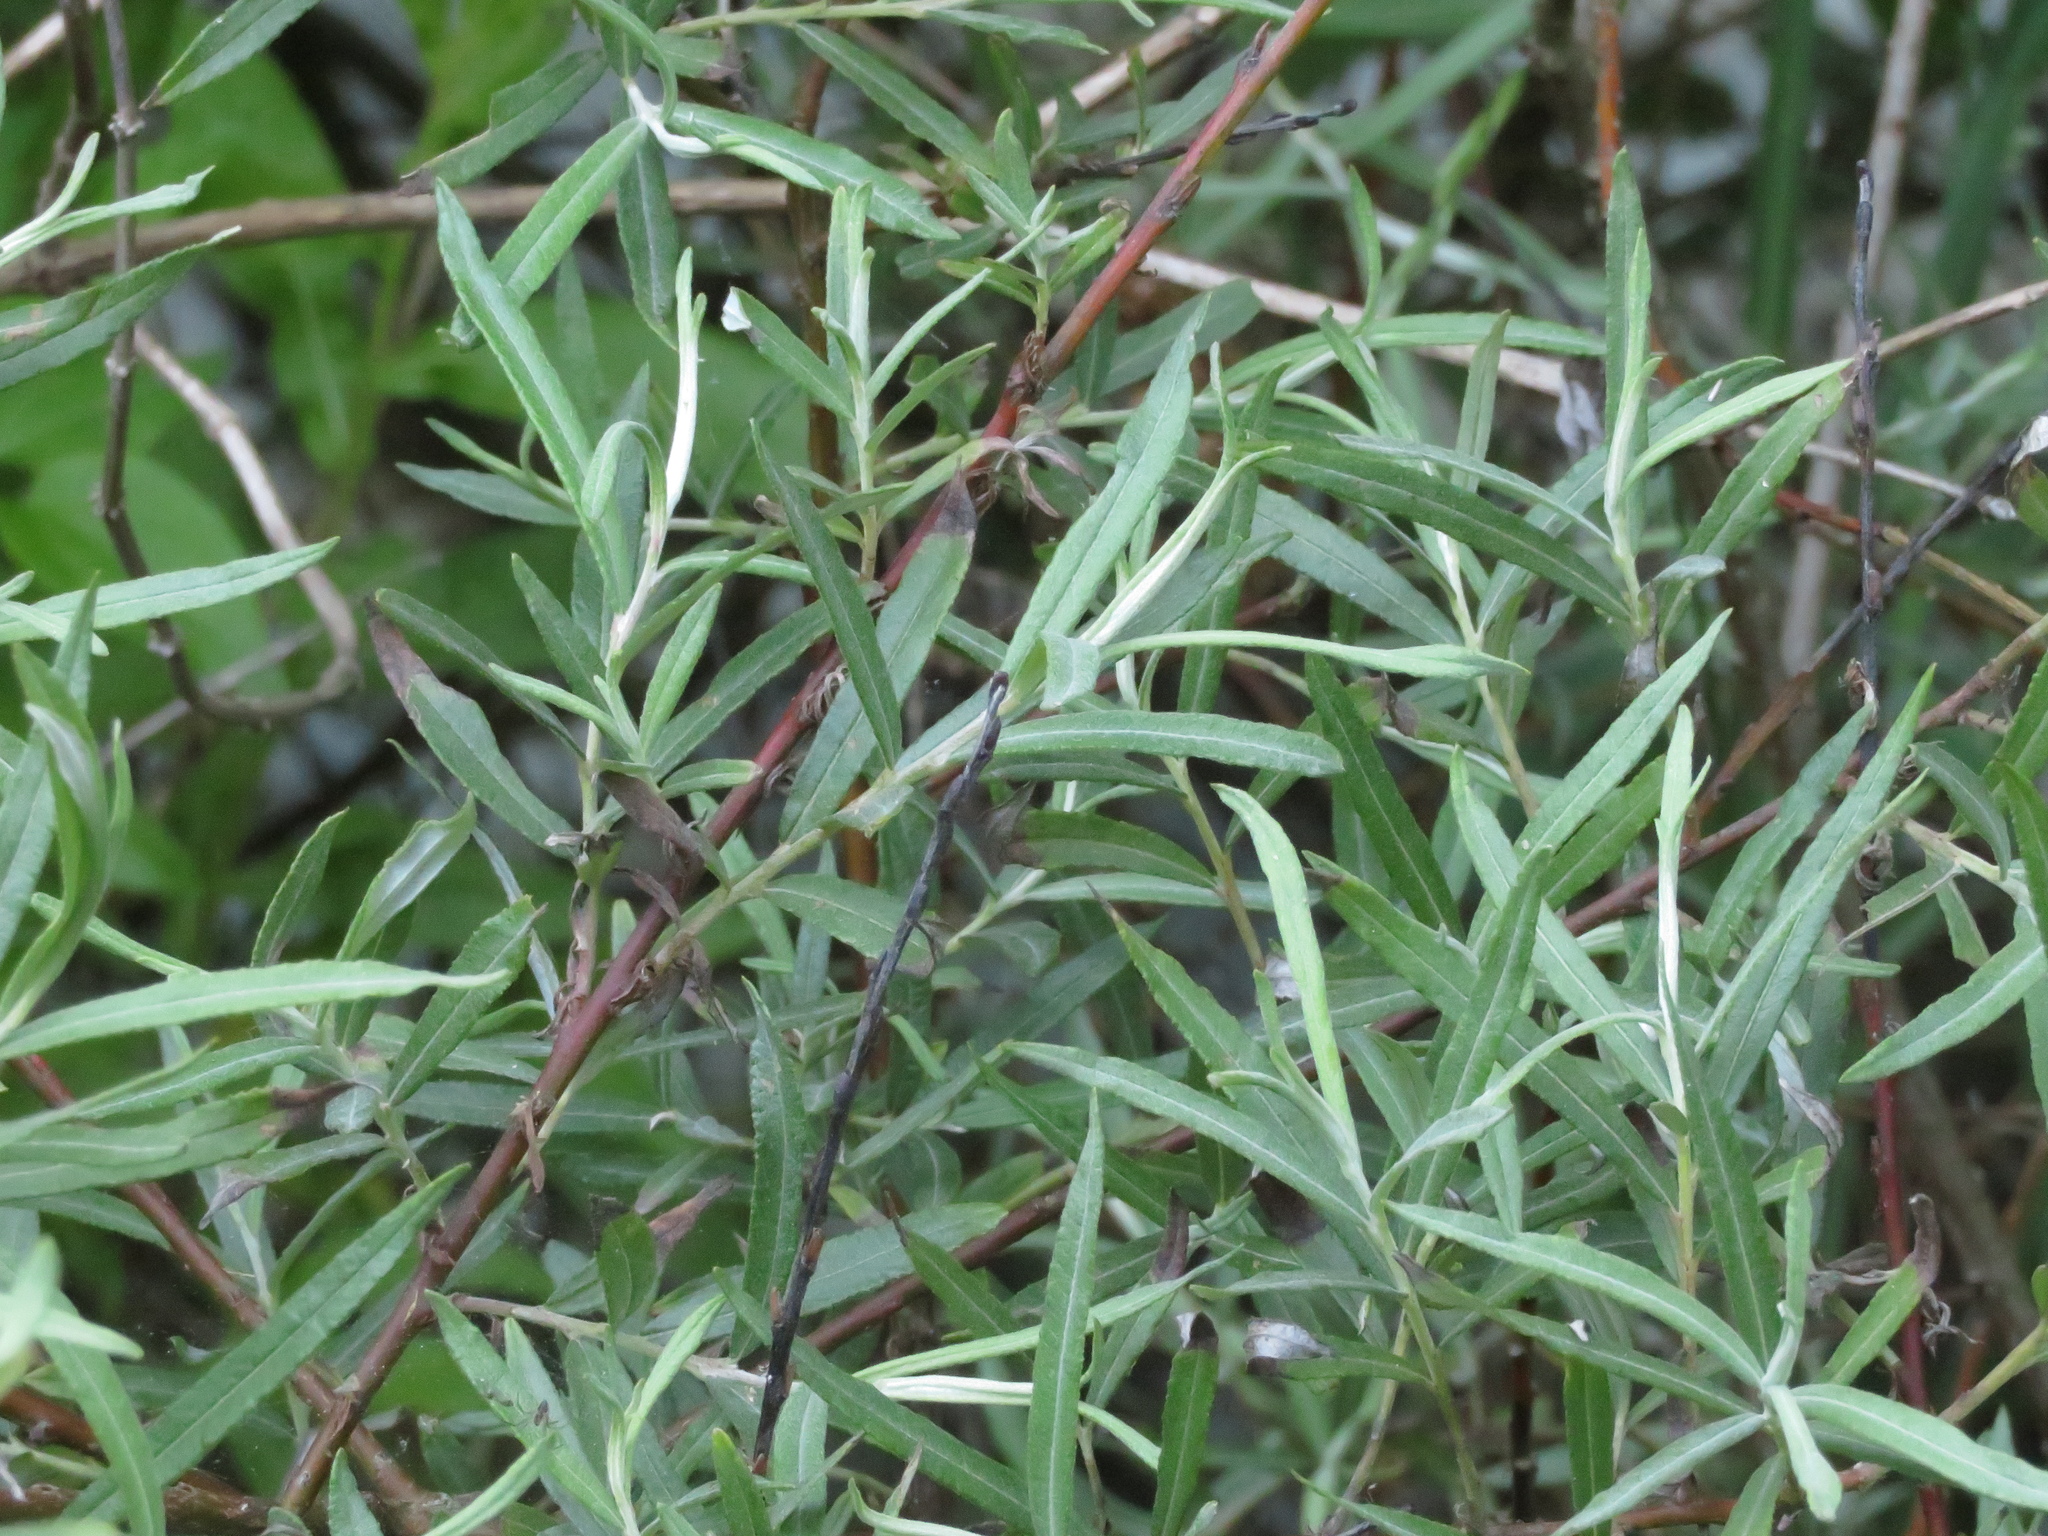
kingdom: Plantae
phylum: Tracheophyta
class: Magnoliopsida
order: Malpighiales
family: Salicaceae
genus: Salix
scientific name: Salix eleagnos
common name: Elaeagnus willow
